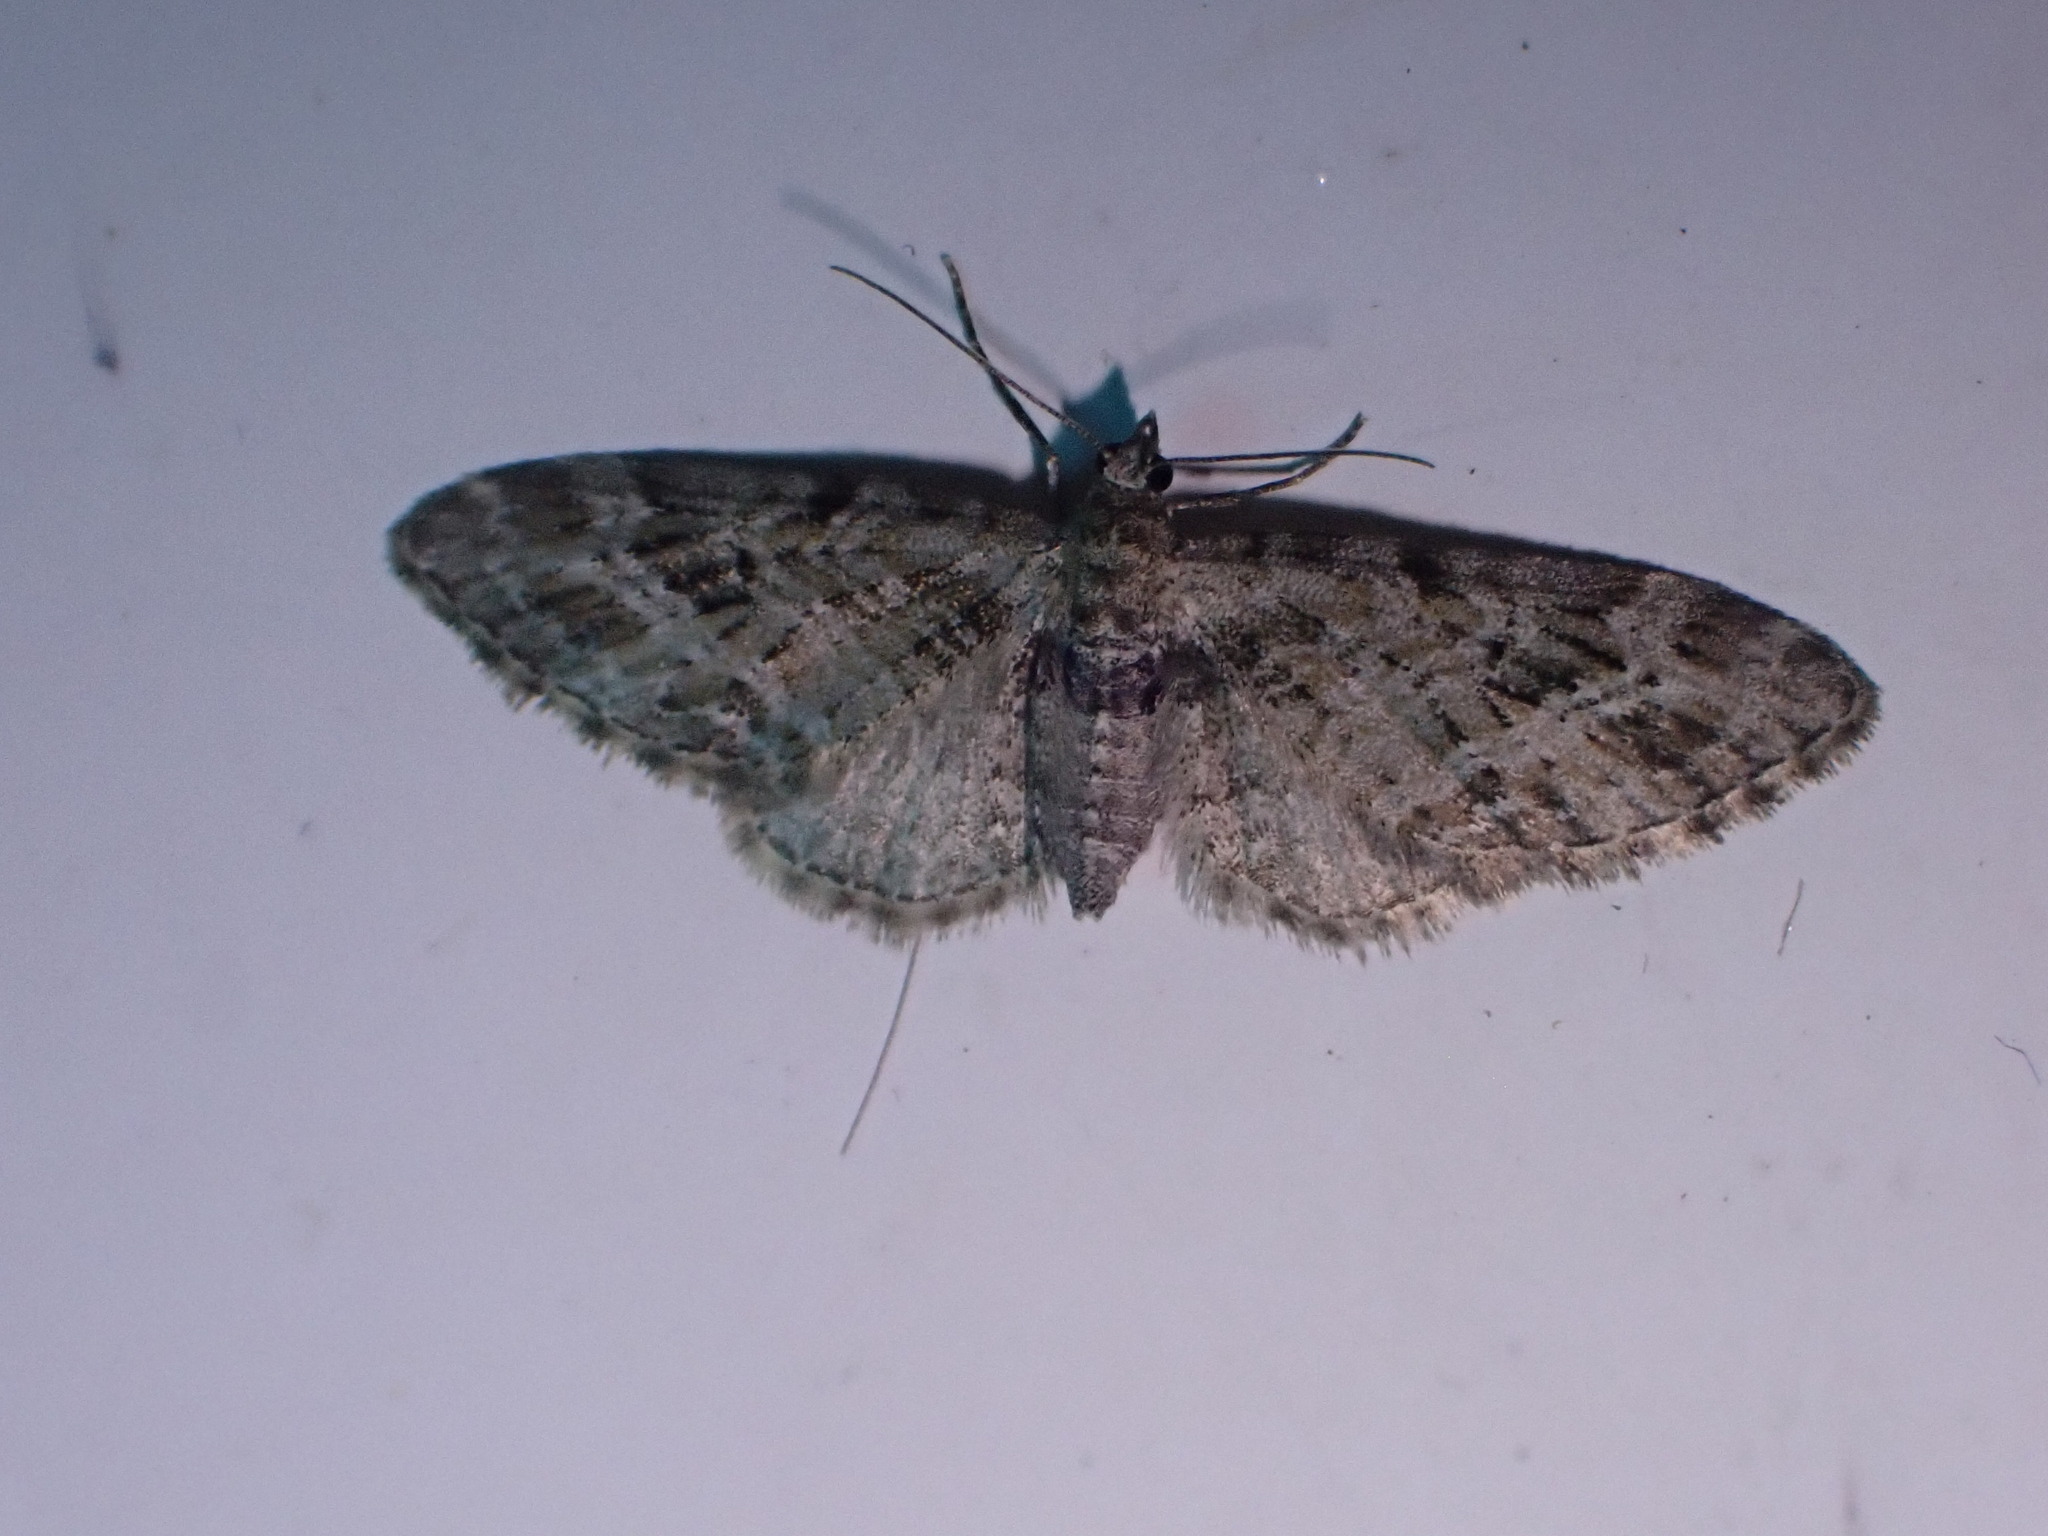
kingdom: Animalia
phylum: Arthropoda
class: Insecta
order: Lepidoptera
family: Geometridae
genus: Eupithecia
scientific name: Eupithecia exiguata
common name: Mottled pug
